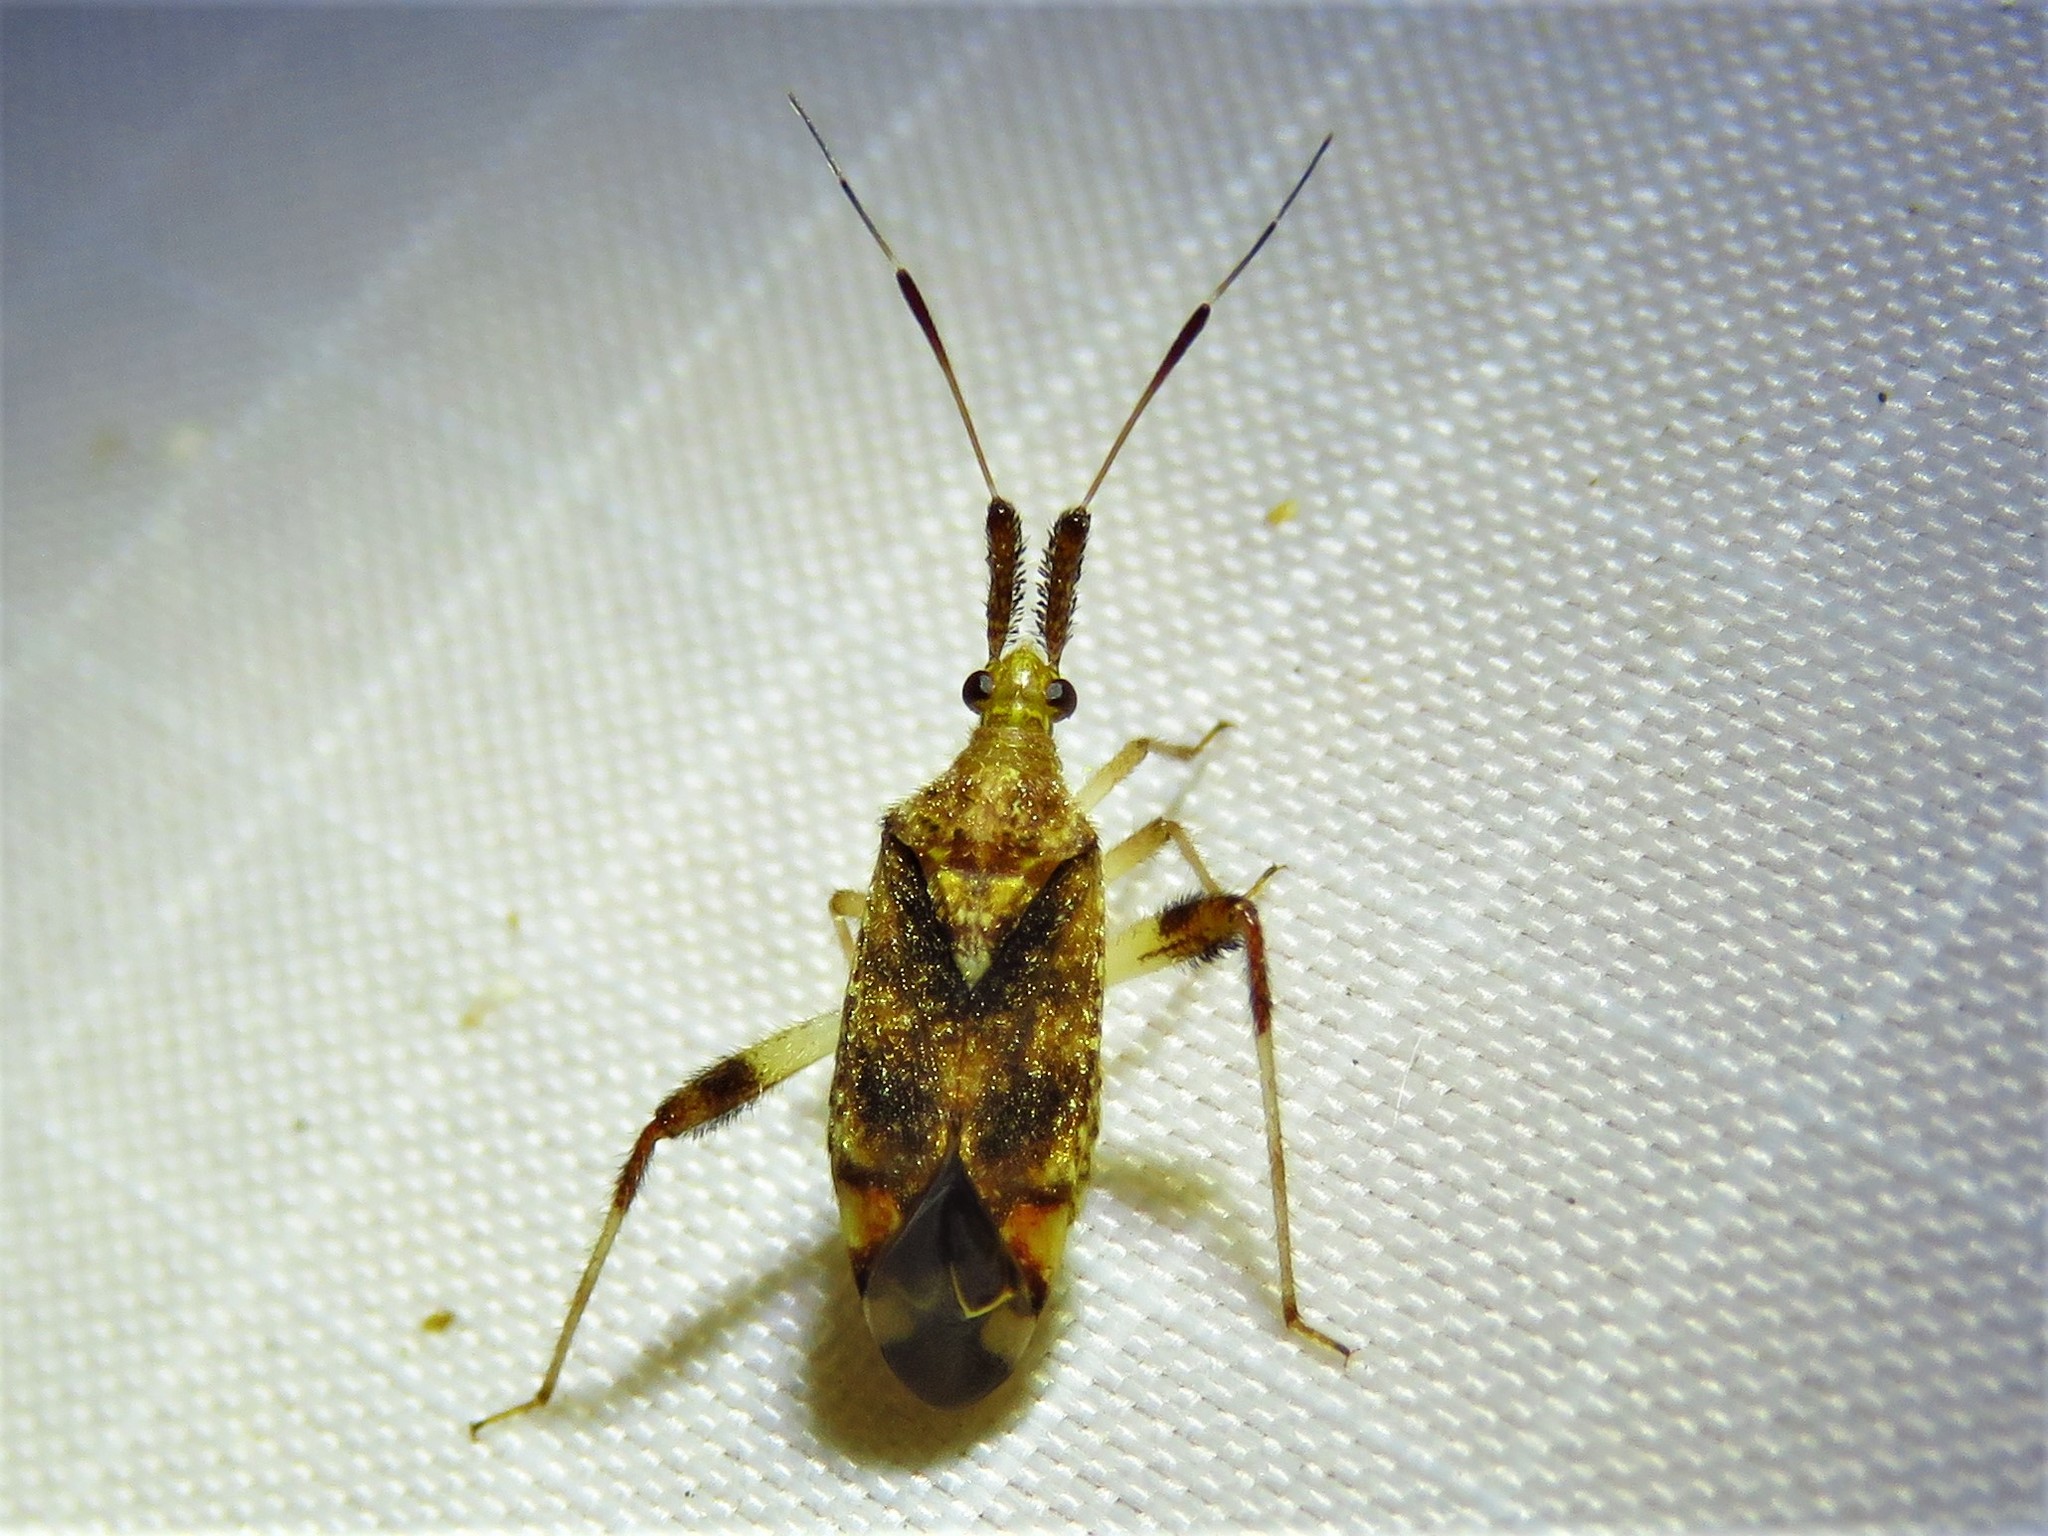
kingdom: Animalia
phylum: Arthropoda
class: Insecta
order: Hemiptera
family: Miridae
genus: Neurocolpus
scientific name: Neurocolpus jessiae
